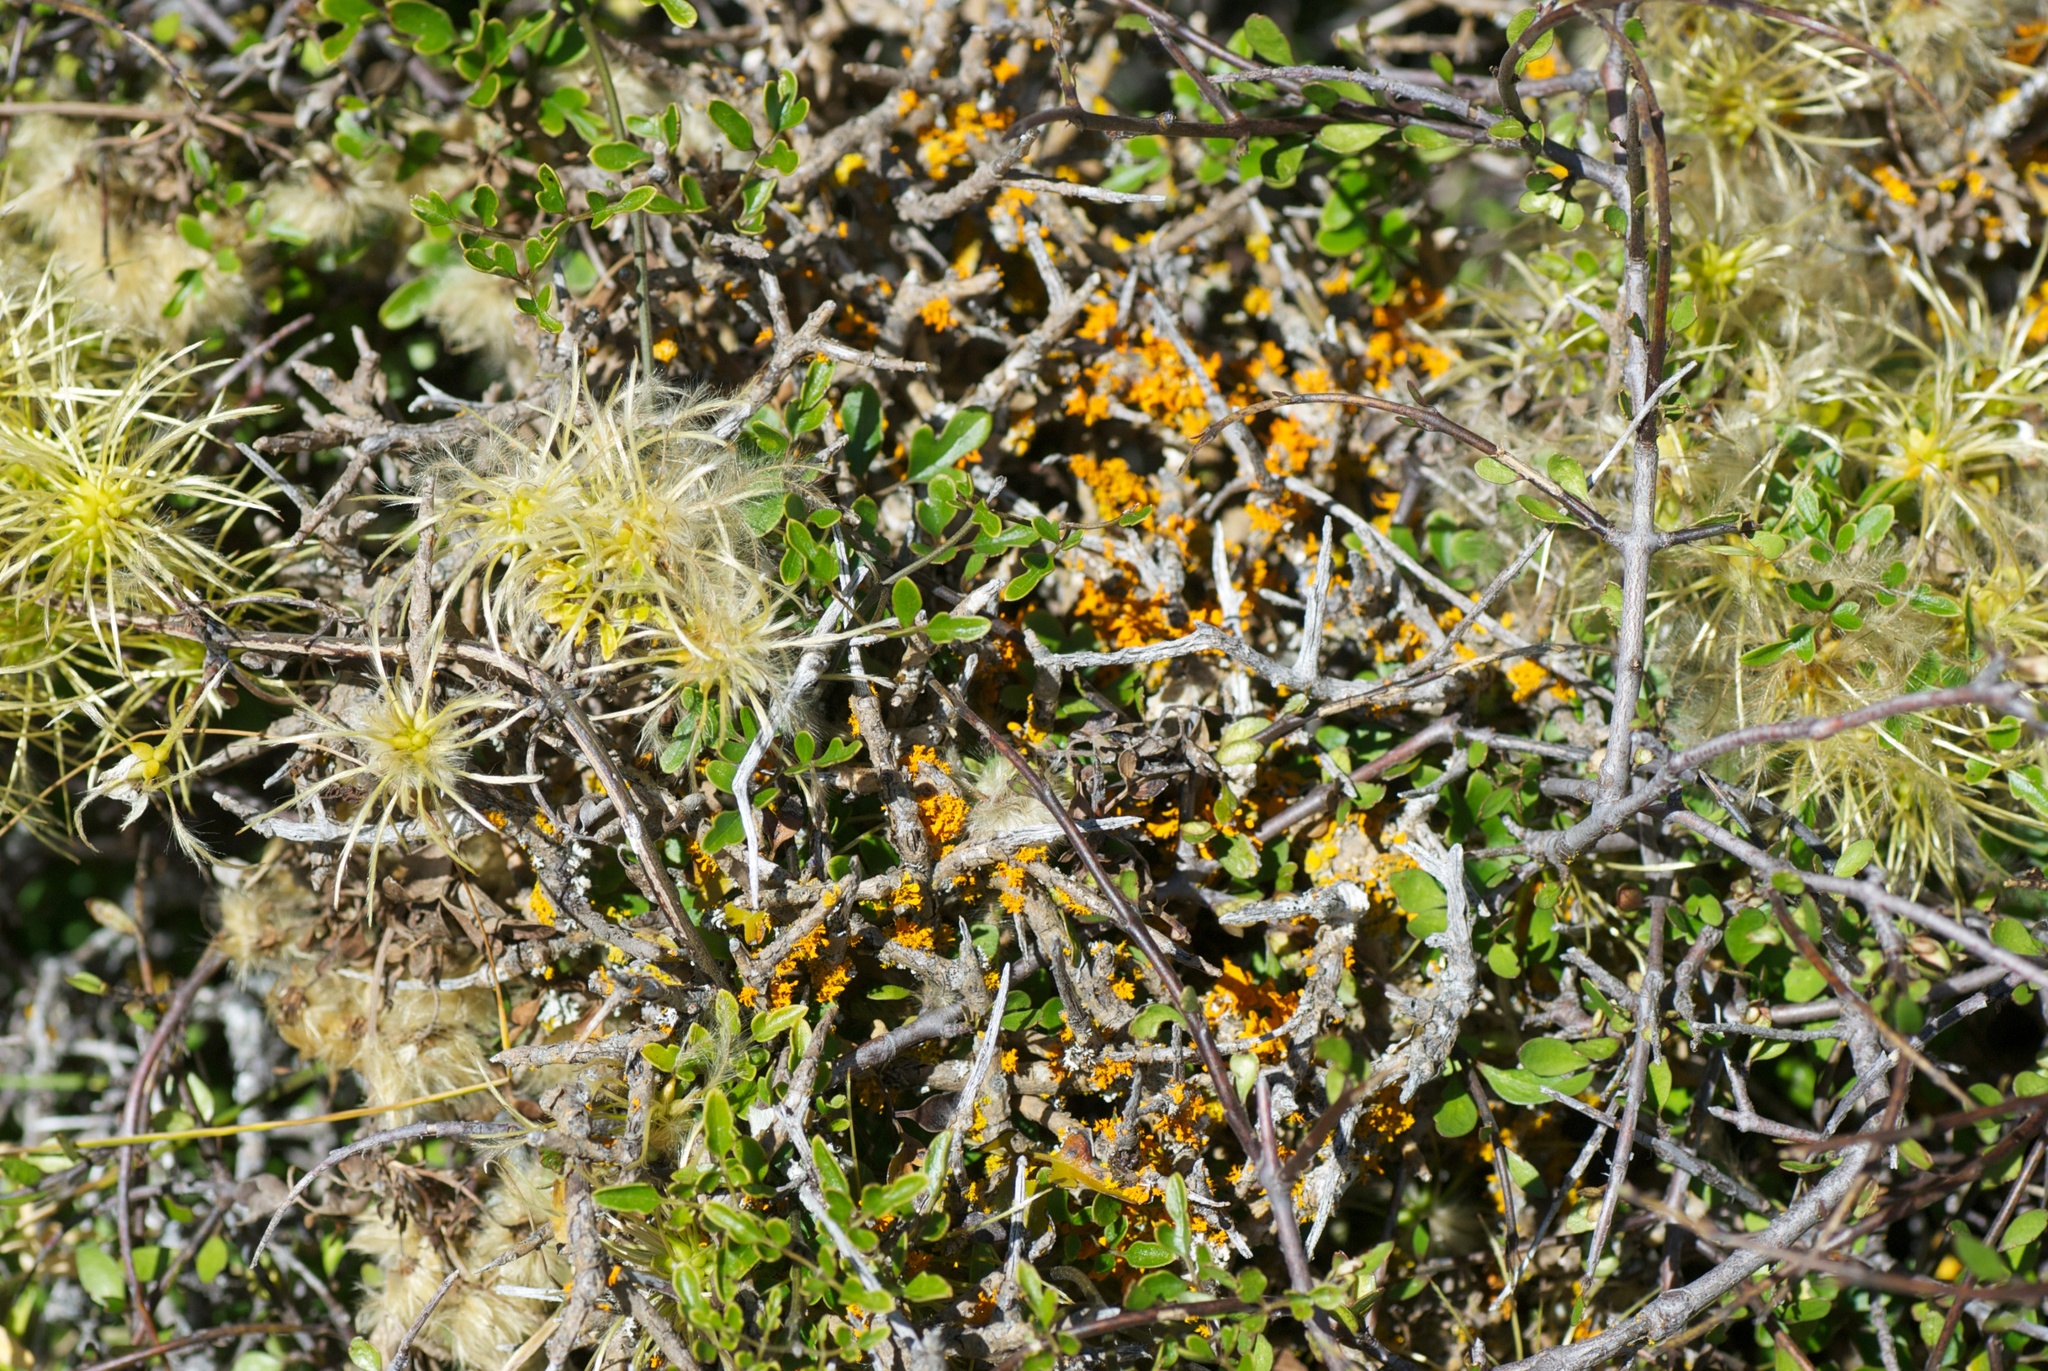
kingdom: Plantae
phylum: Tracheophyta
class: Magnoliopsida
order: Ranunculales
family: Ranunculaceae
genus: Clematis
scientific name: Clematis forsteri
